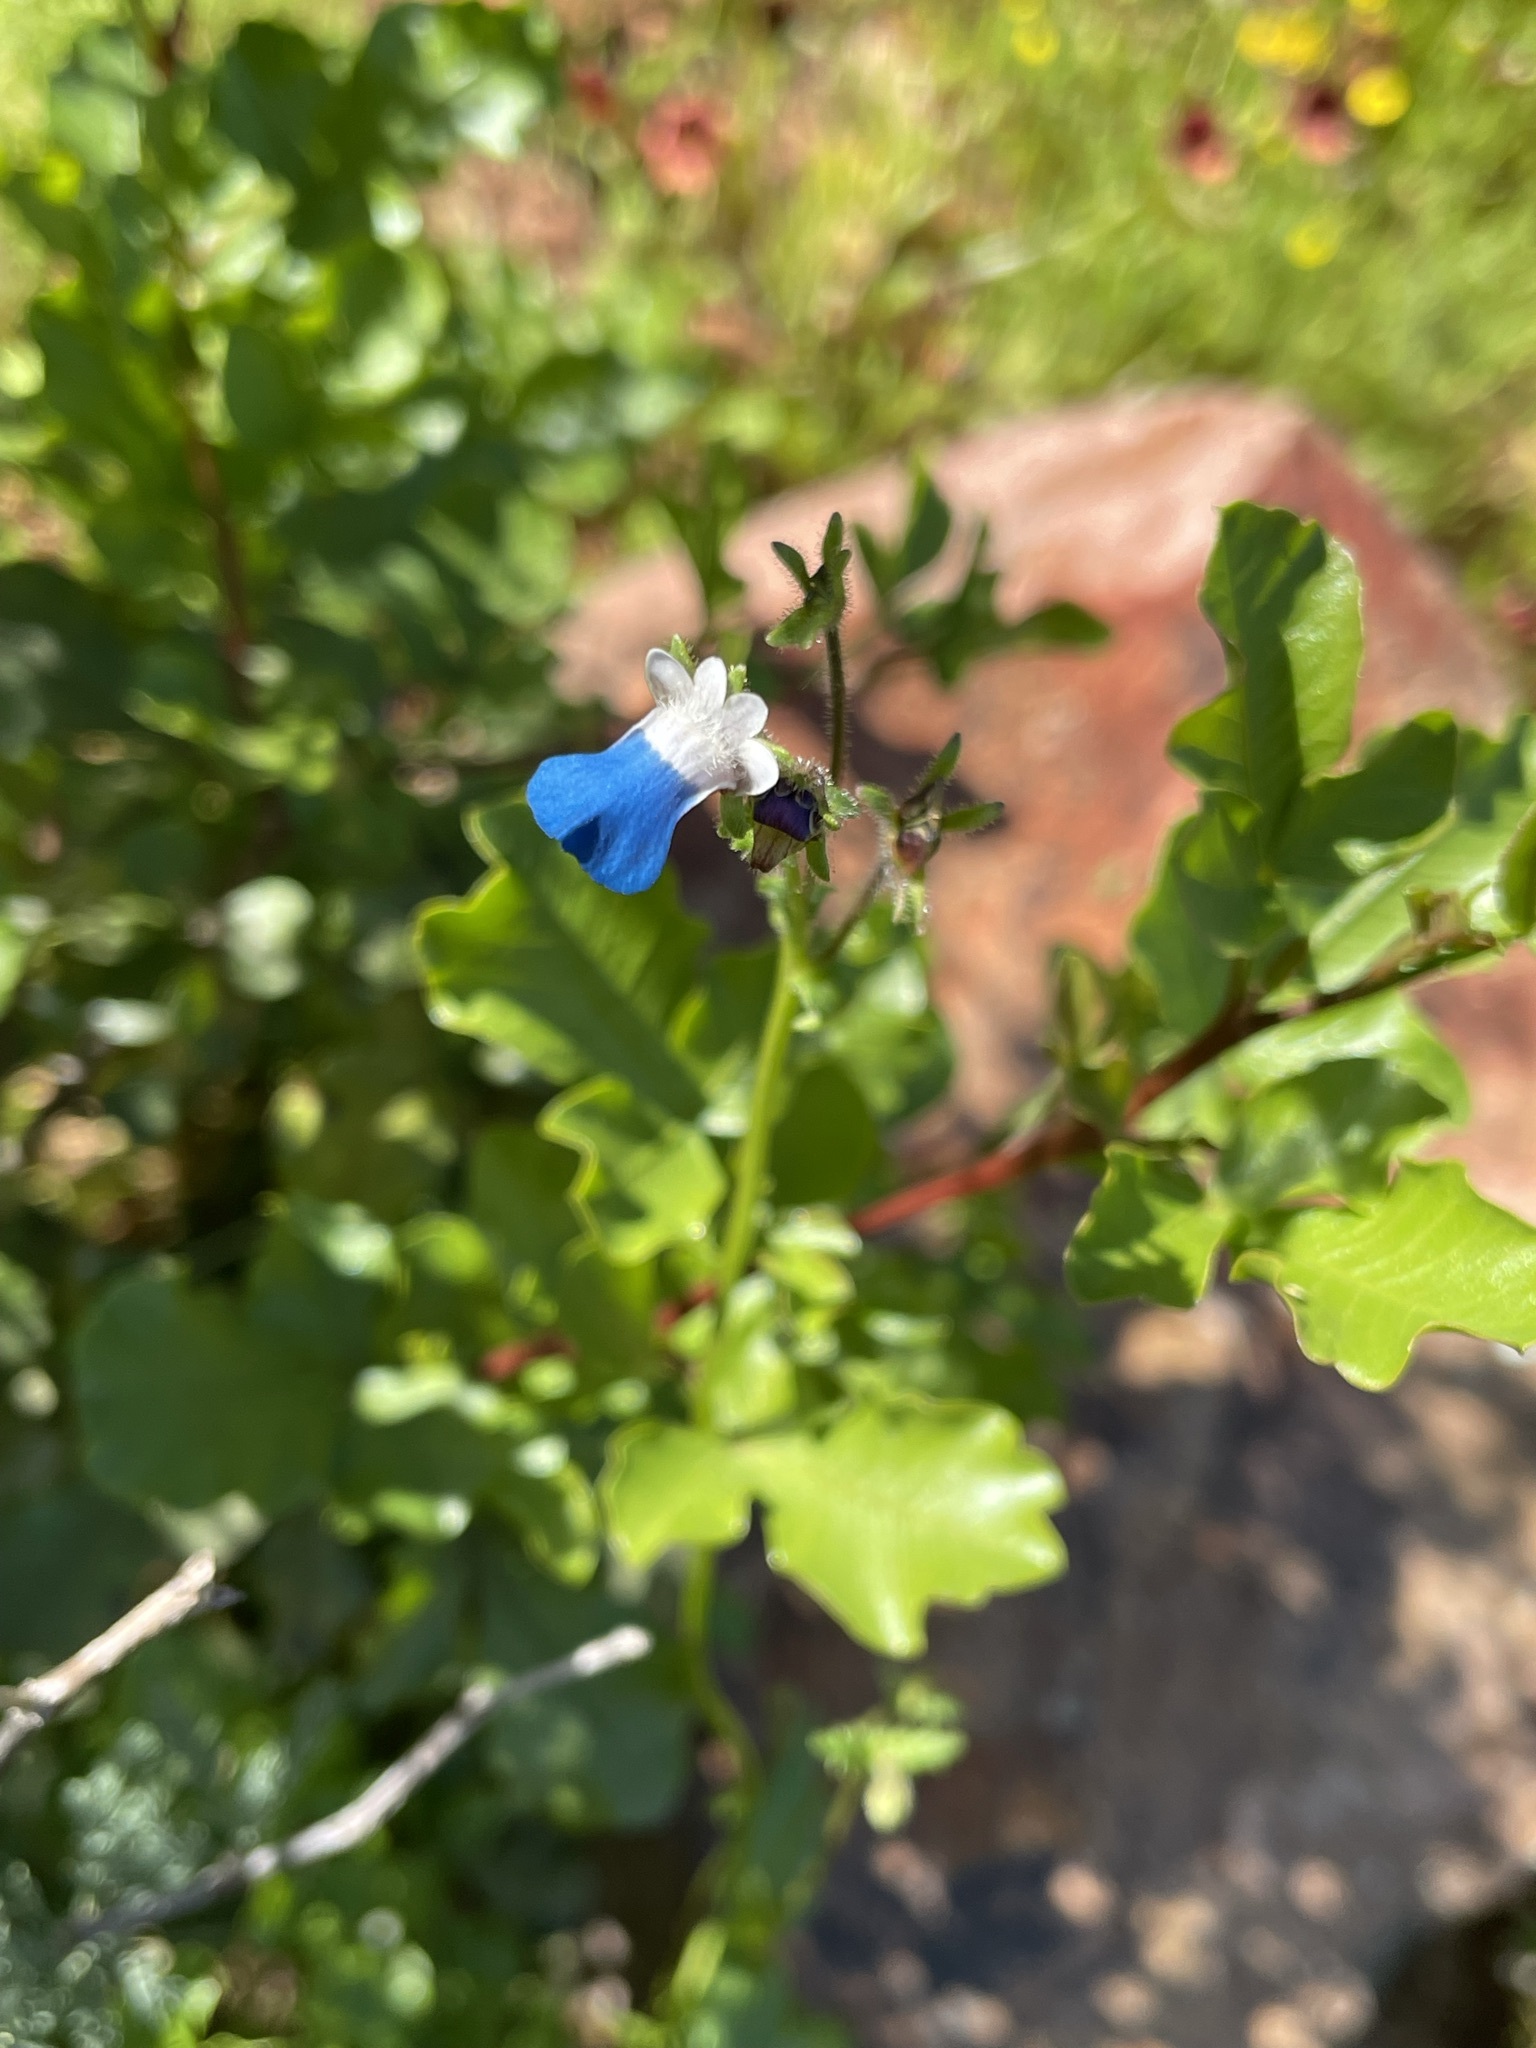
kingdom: Plantae
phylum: Tracheophyta
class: Magnoliopsida
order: Lamiales
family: Scrophulariaceae
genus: Nemesia
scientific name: Nemesia barbata
